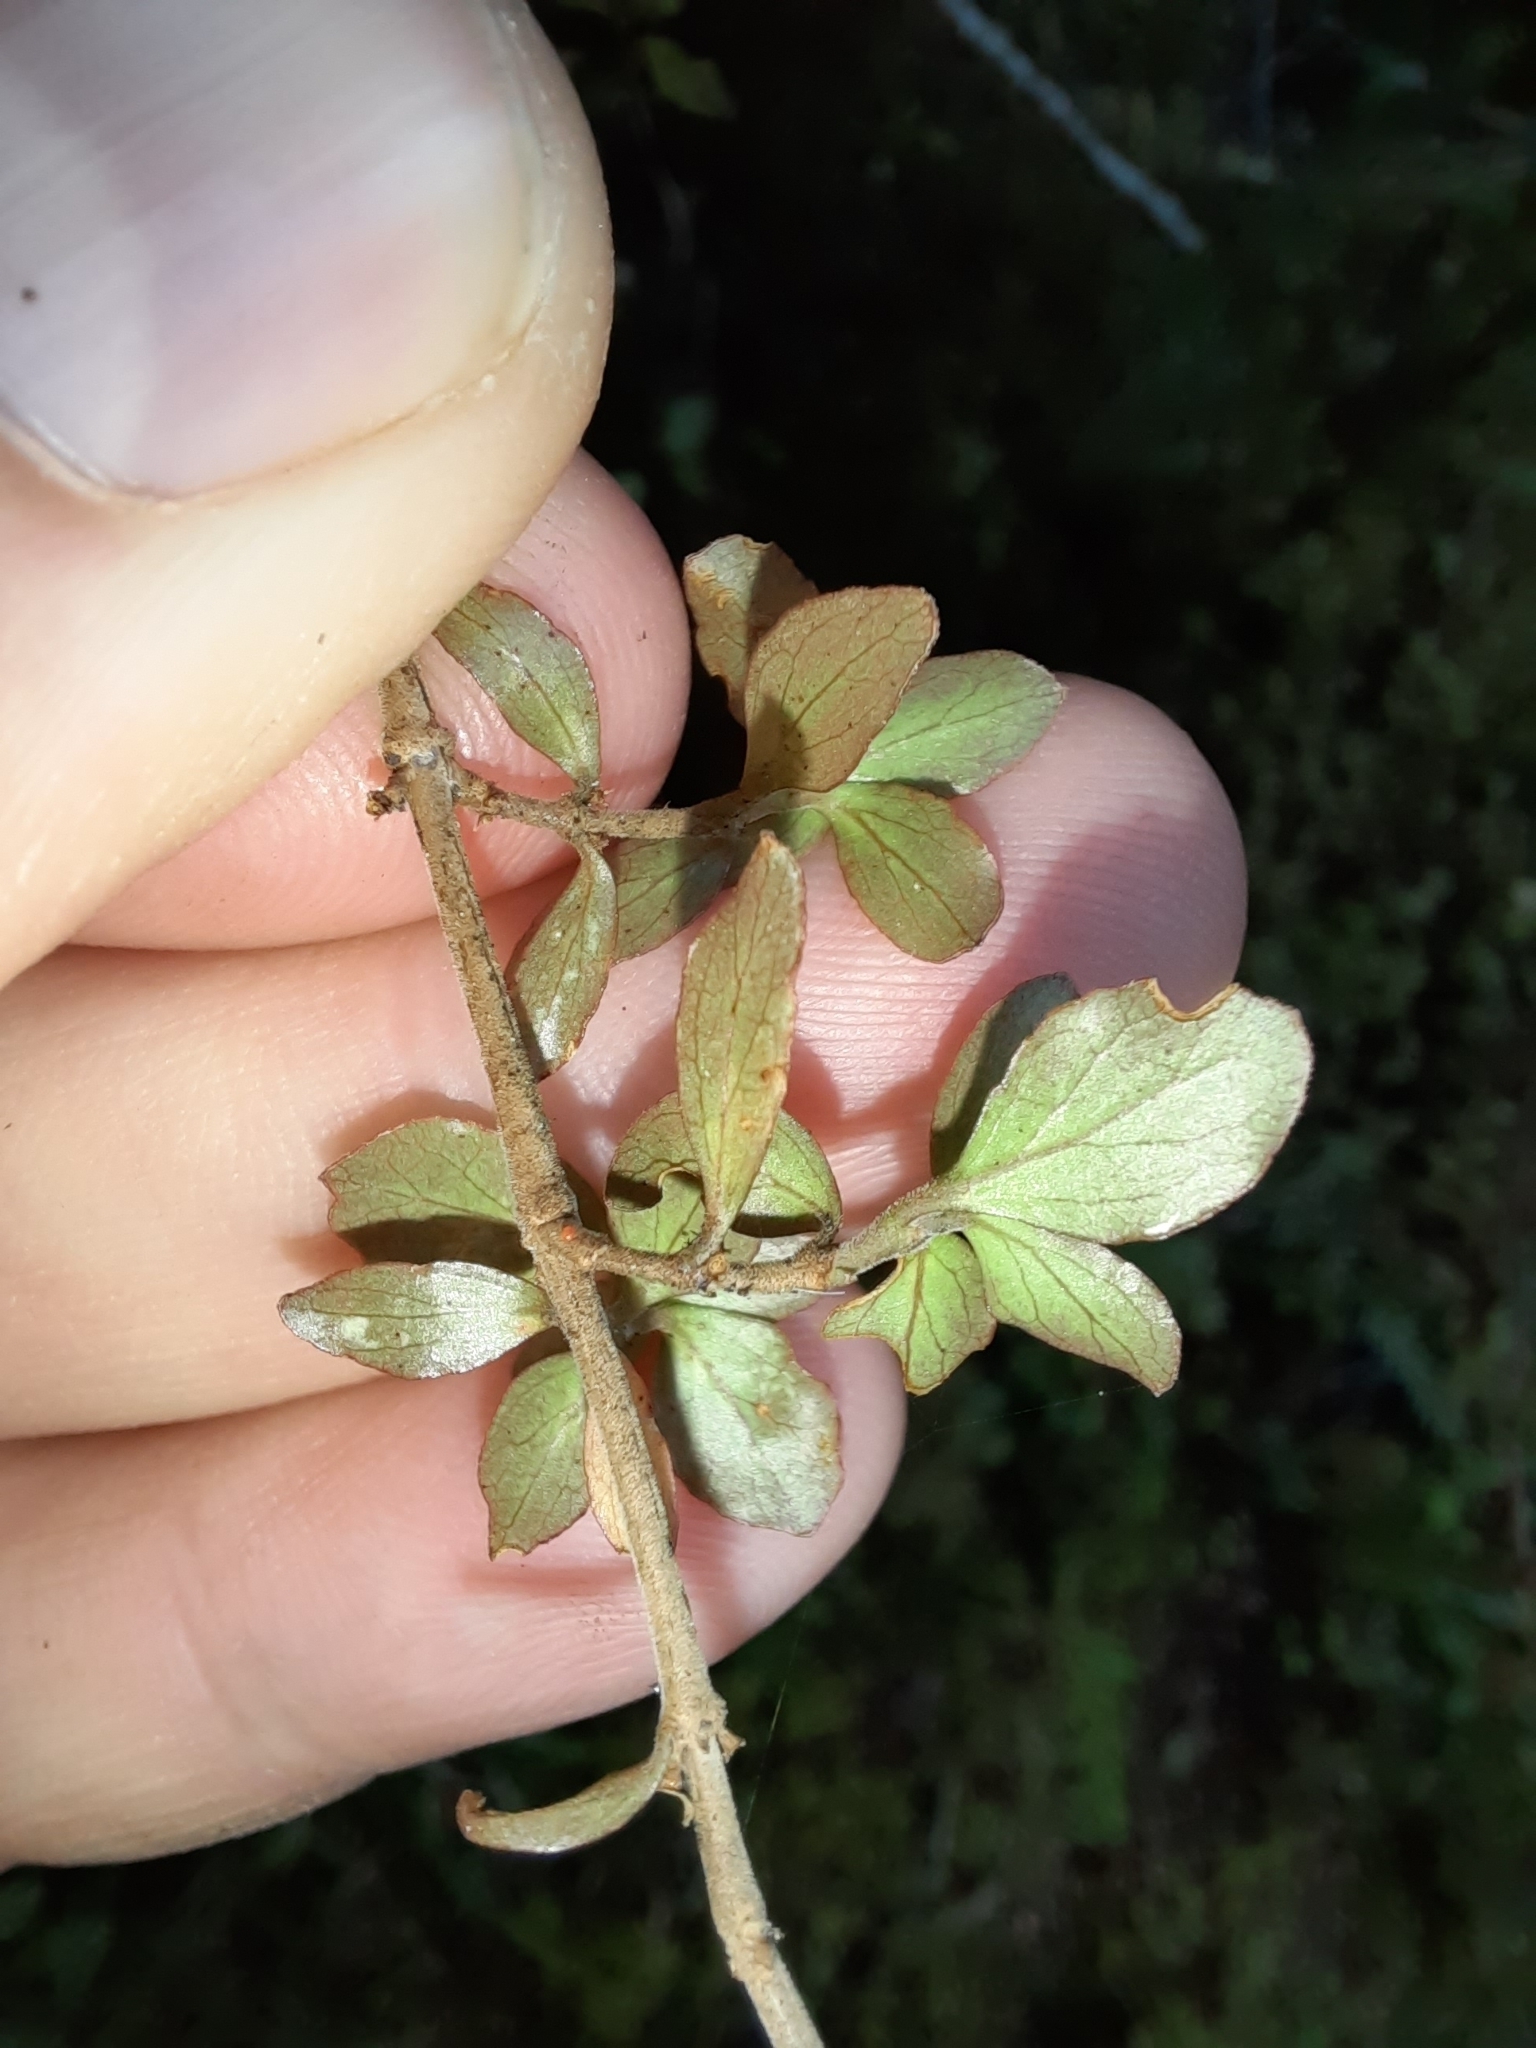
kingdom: Plantae
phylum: Tracheophyta
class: Magnoliopsida
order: Gentianales
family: Rubiaceae
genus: Coprosma
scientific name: Coprosma rhamnoides
